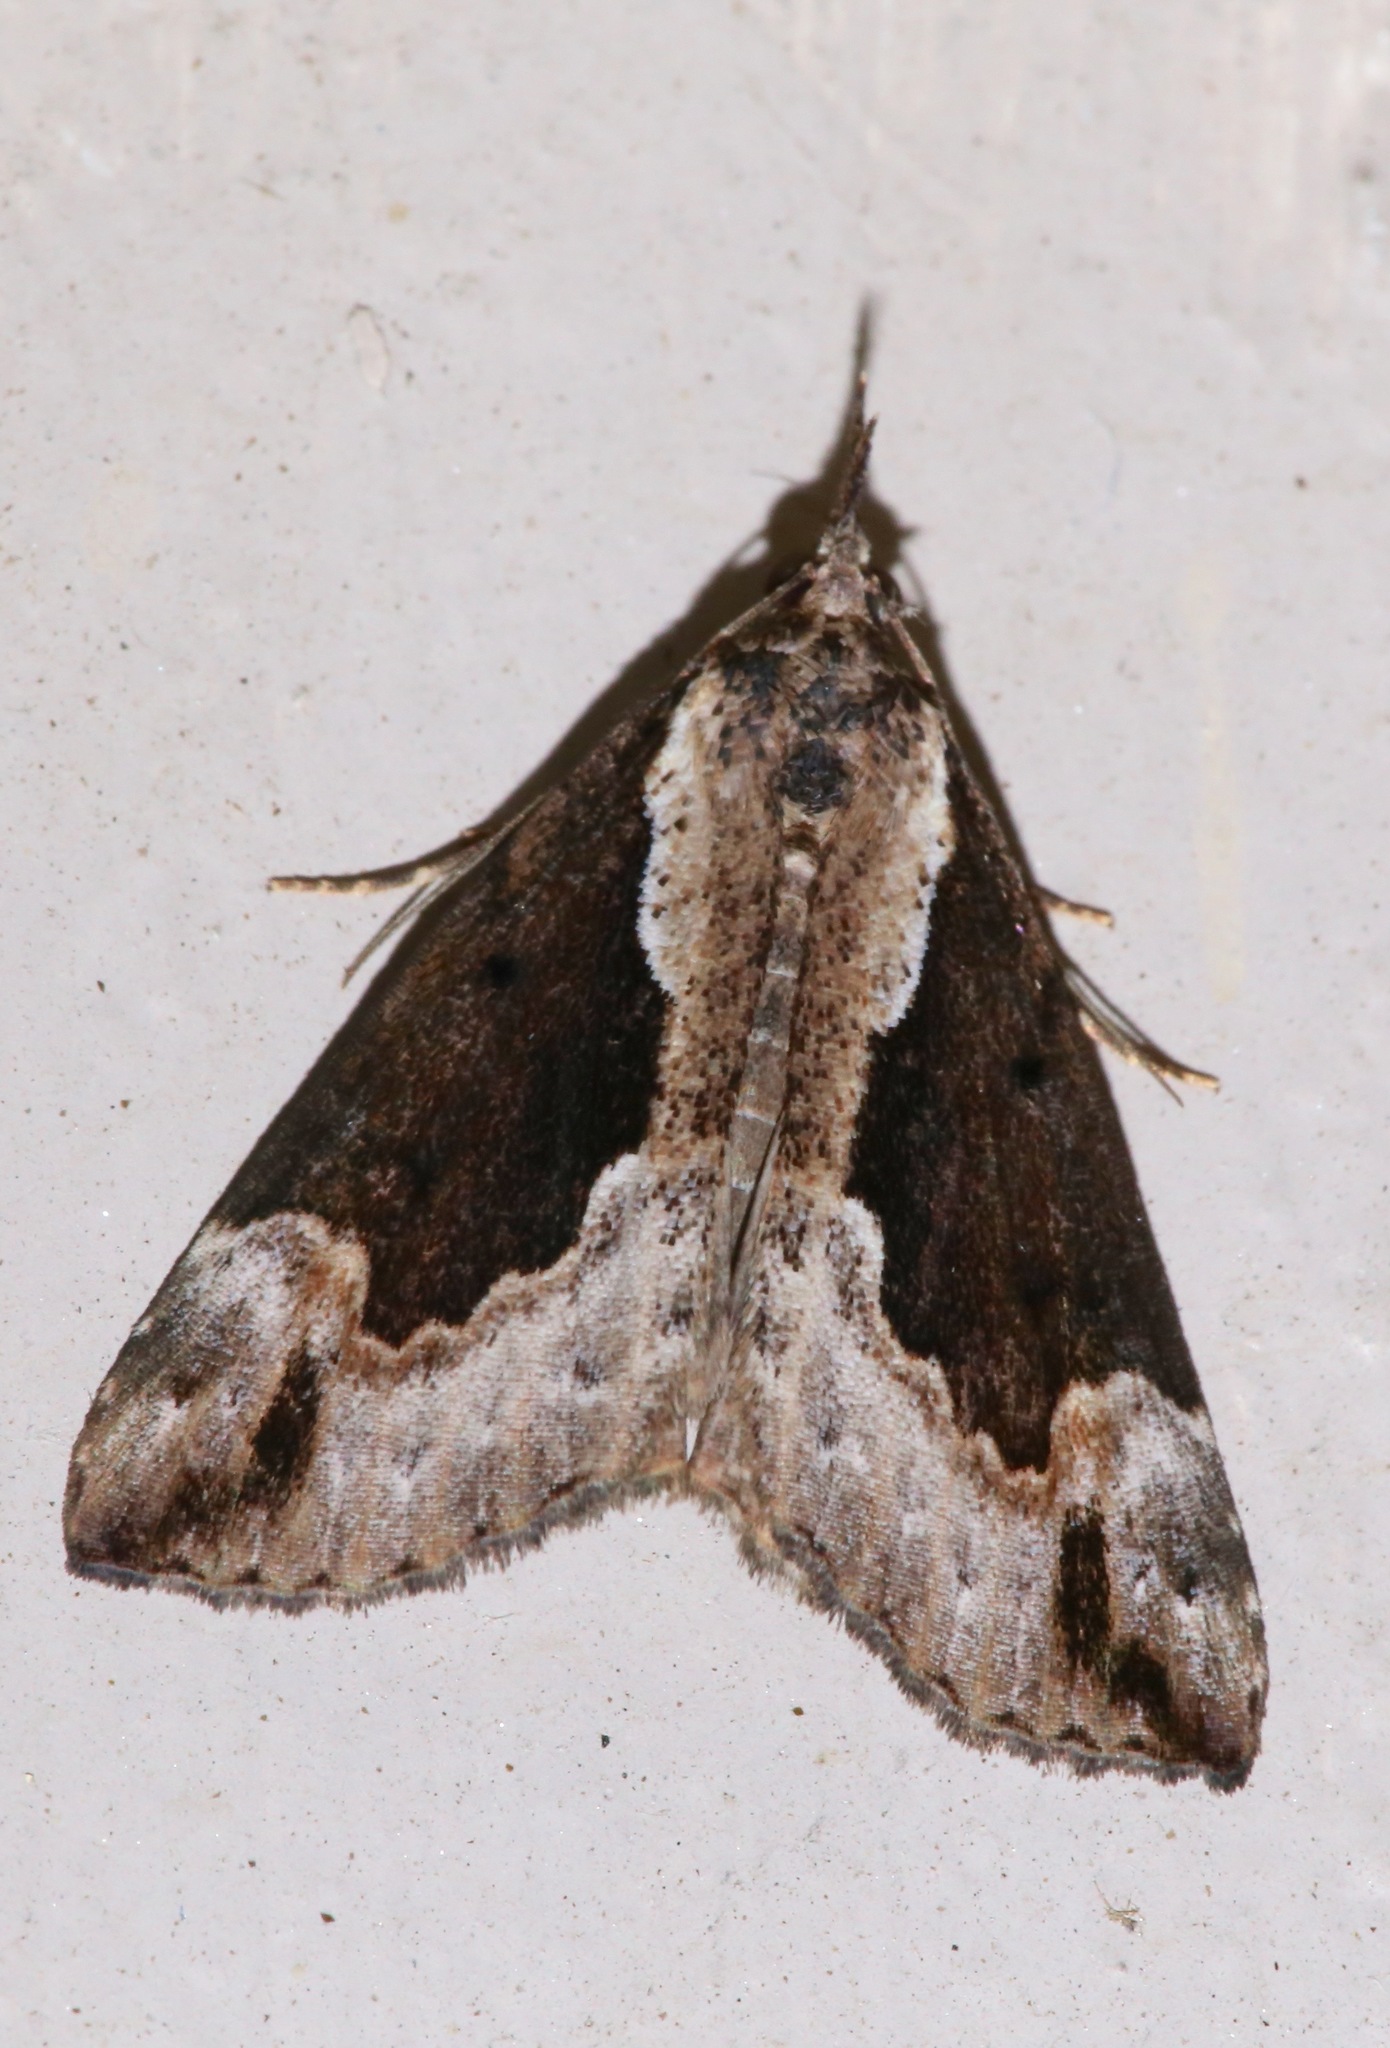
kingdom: Animalia
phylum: Arthropoda
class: Insecta
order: Lepidoptera
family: Erebidae
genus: Hypena
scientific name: Hypena baltimoralis
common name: Baltimore snout
